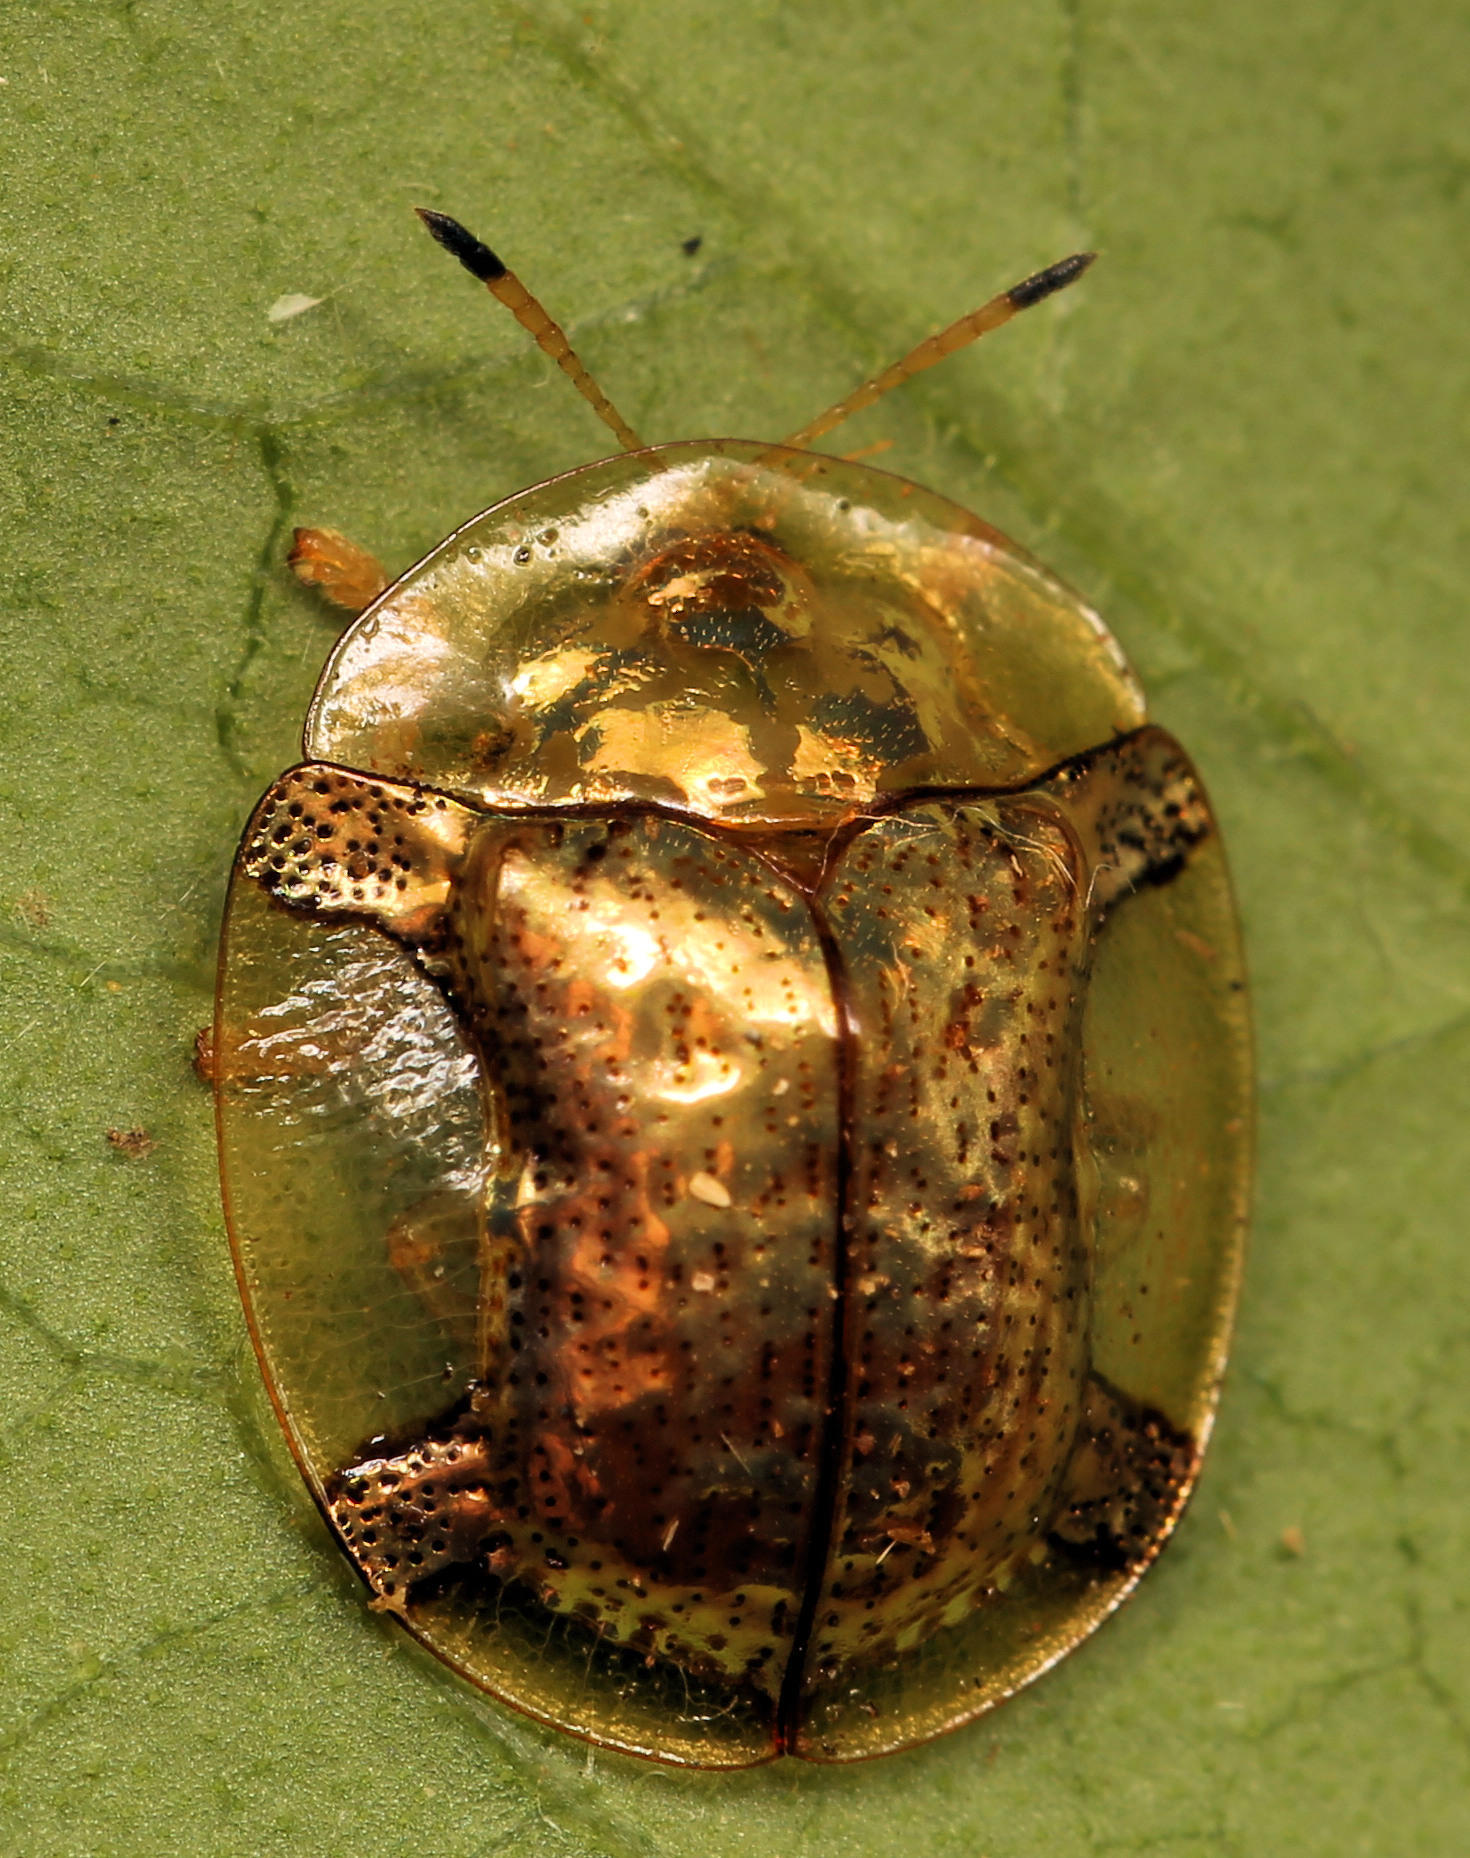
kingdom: Animalia
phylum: Arthropoda
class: Insecta
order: Coleoptera
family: Chrysomelidae
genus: Aspidimorpha
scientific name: Aspidimorpha quadriremis
